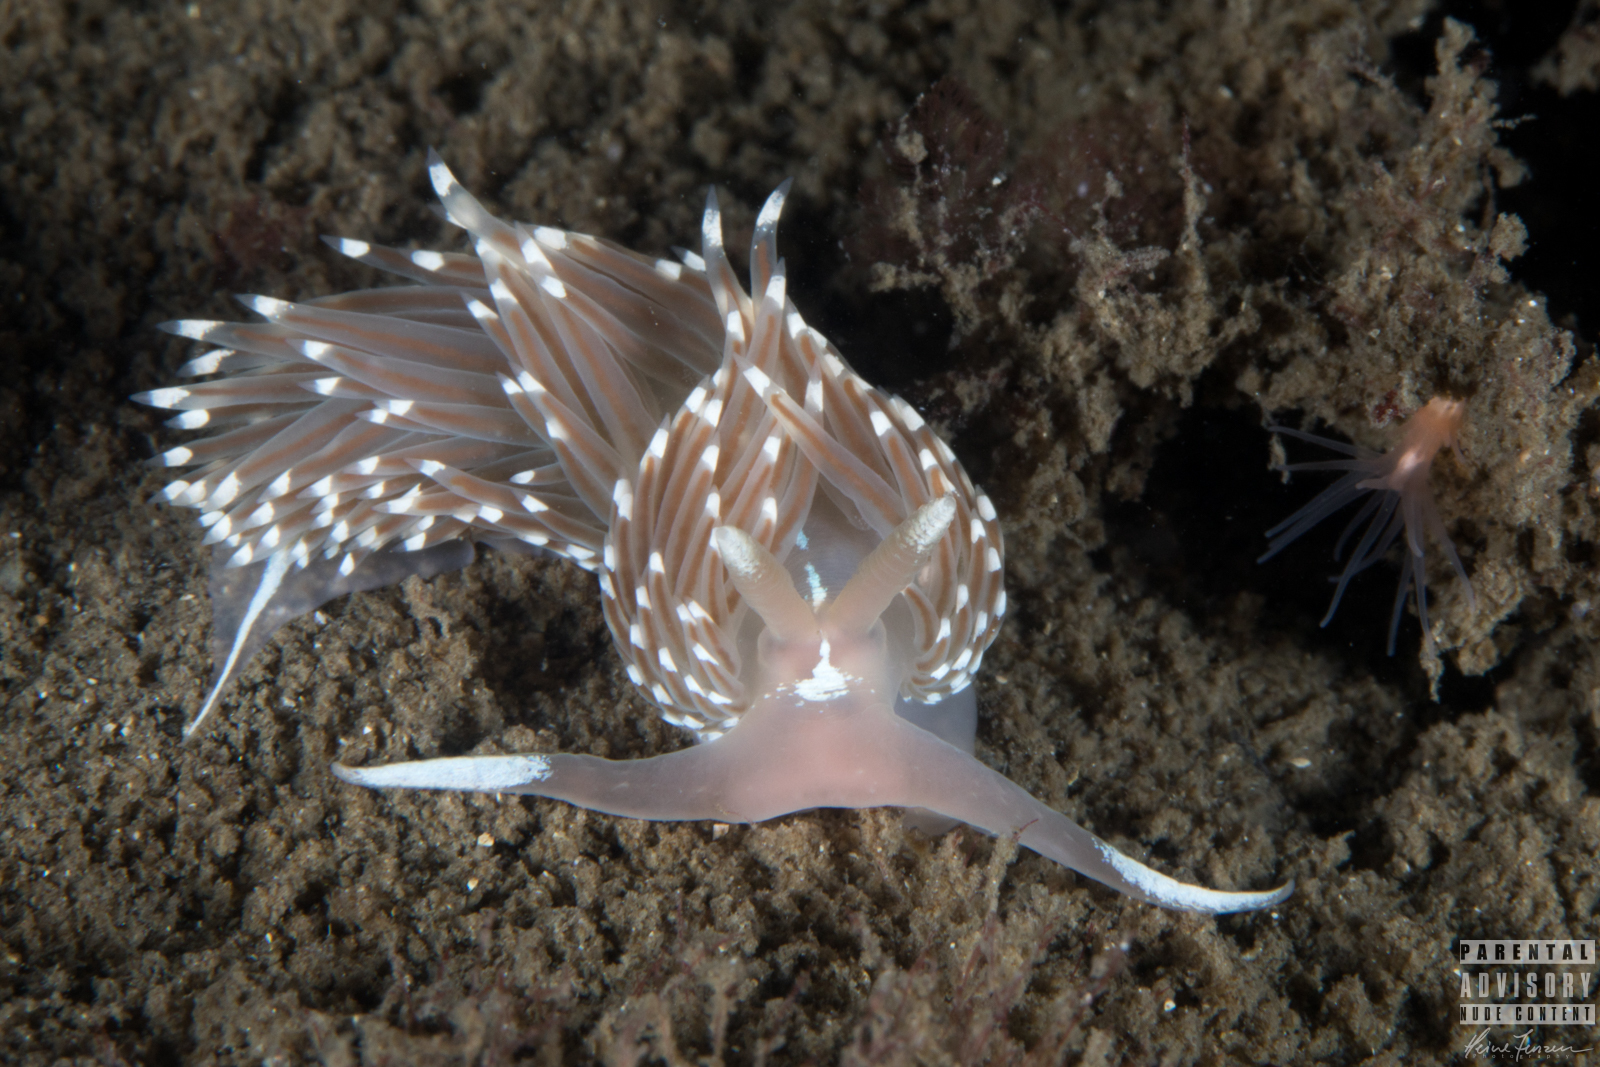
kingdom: Animalia
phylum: Mollusca
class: Gastropoda
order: Nudibranchia
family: Facelinidae
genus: Facelina
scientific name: Facelina bostoniensis
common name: Boston facelina
